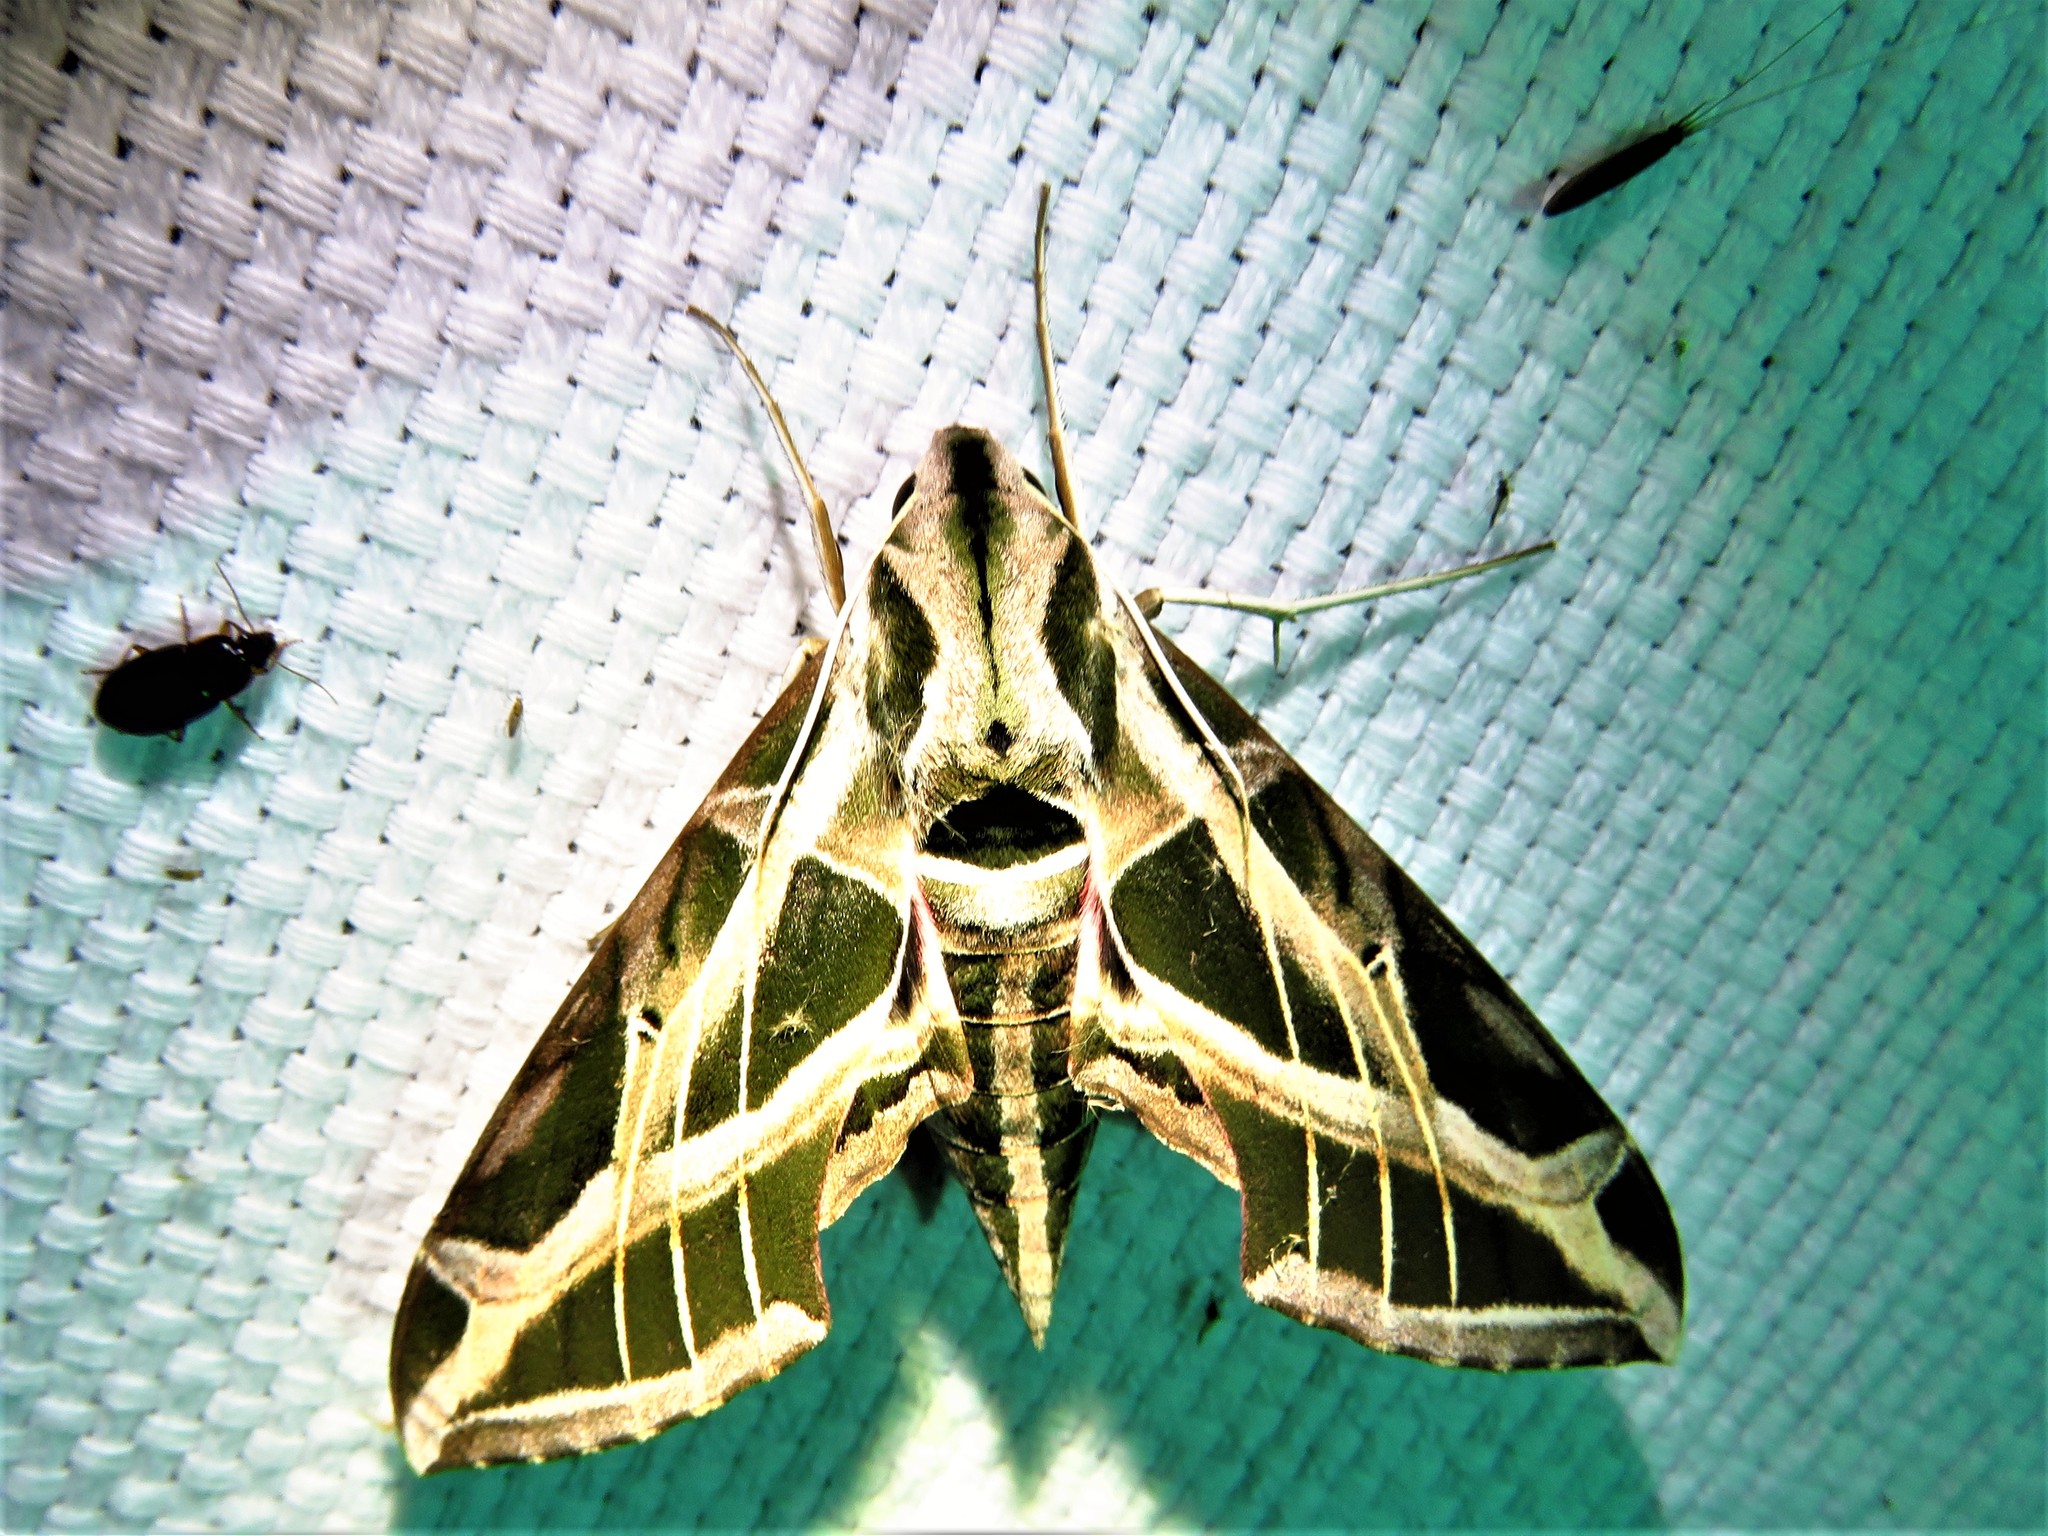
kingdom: Animalia
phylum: Arthropoda
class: Insecta
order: Lepidoptera
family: Sphingidae
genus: Eumorpha
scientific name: Eumorpha vitis
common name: Vine sphinx
